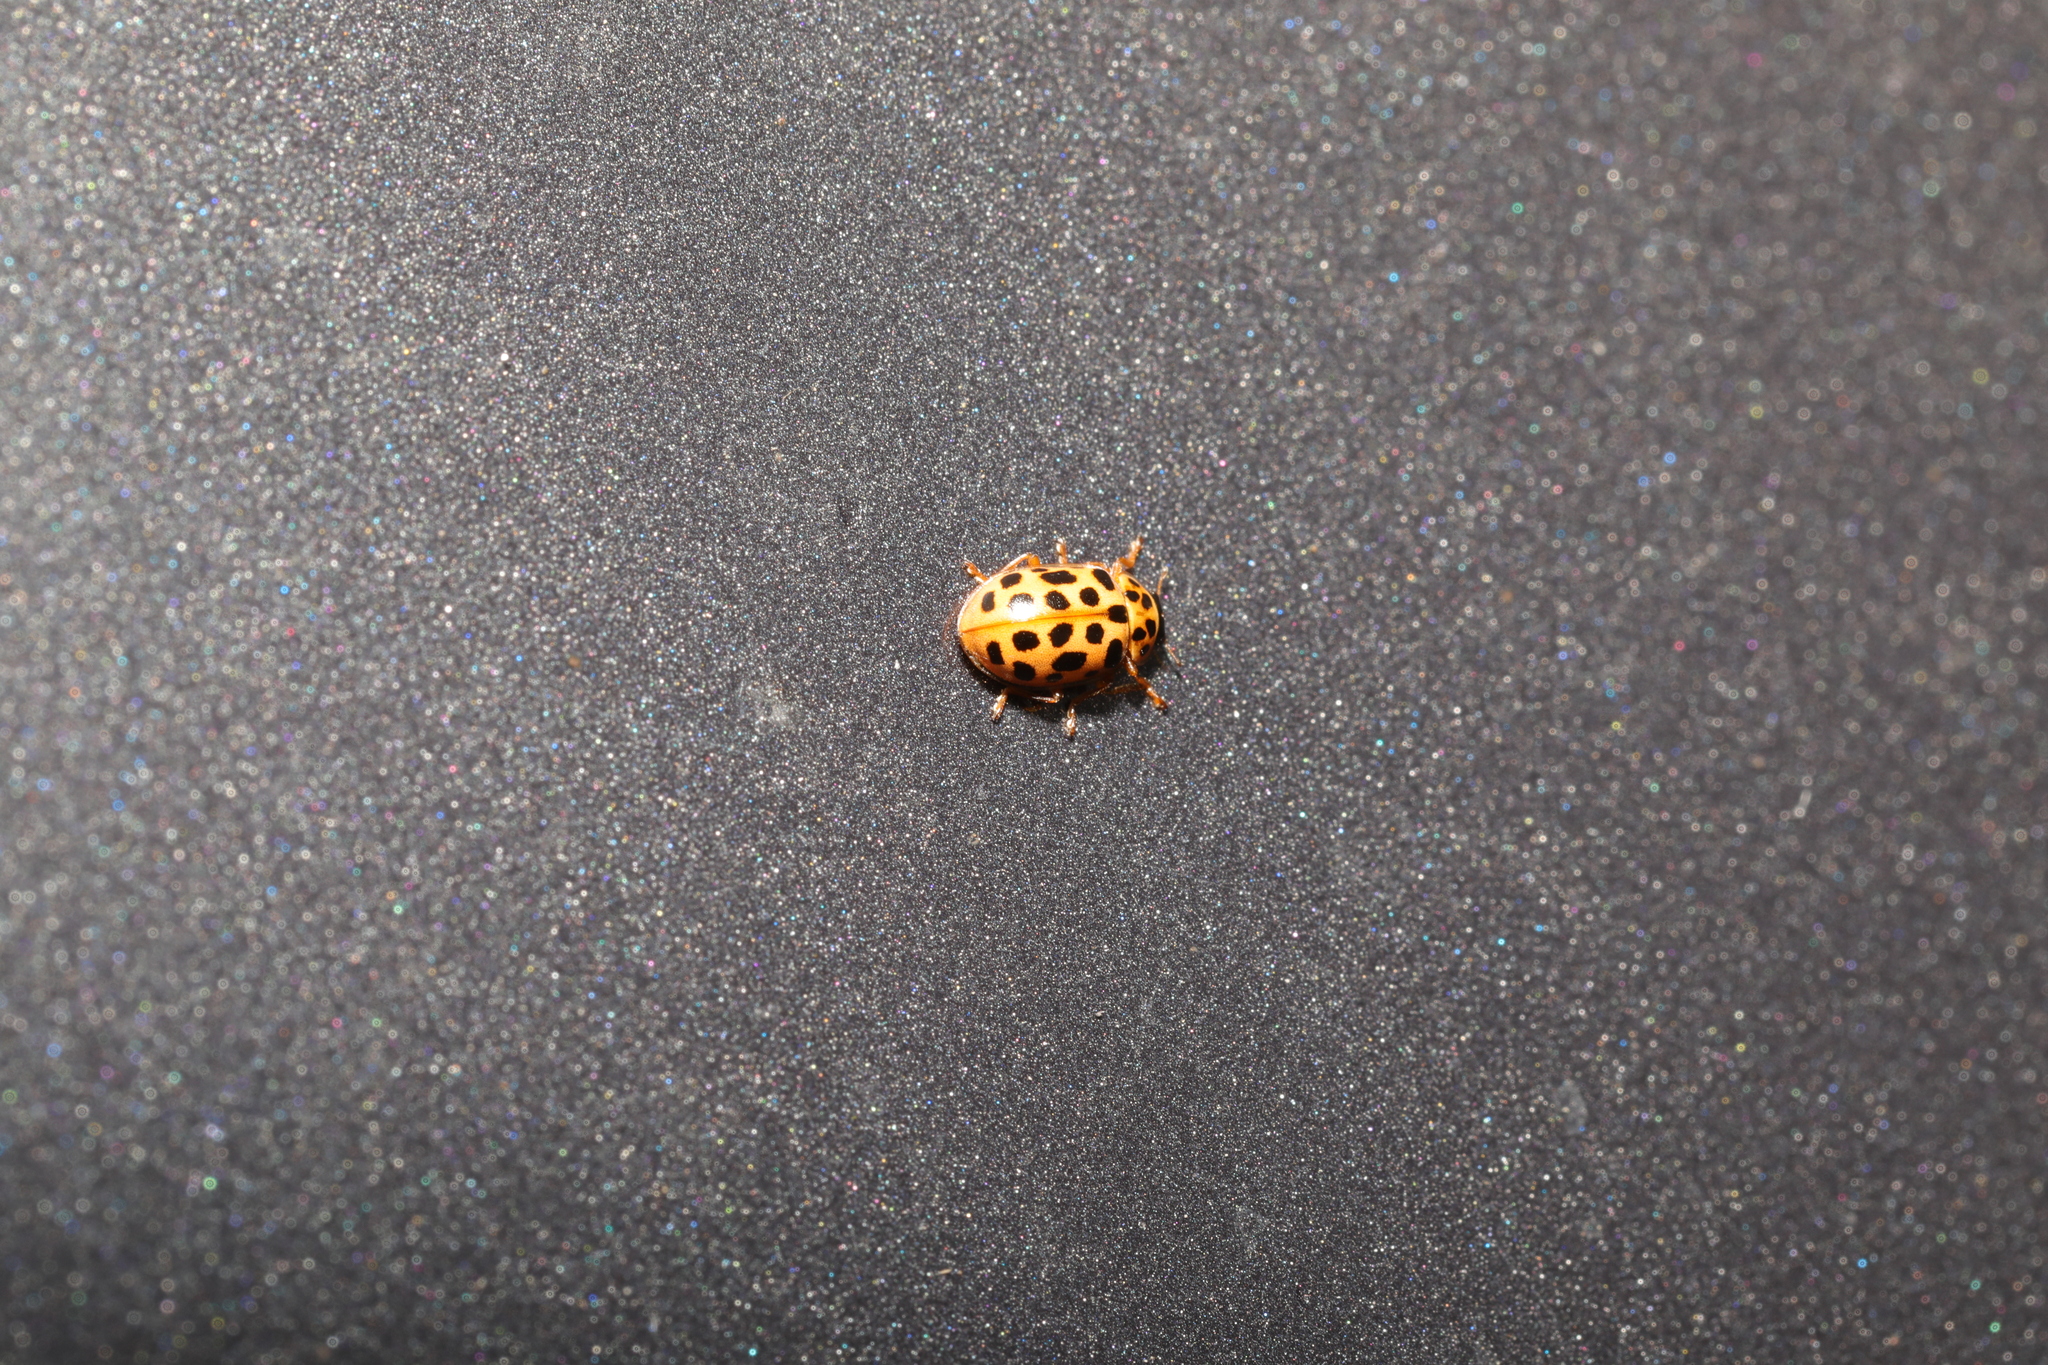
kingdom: Animalia
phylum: Arthropoda
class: Insecta
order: Coleoptera
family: Coccinellidae
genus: Anisosticta
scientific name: Anisosticta novemdecimpunctata
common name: Water ladybird
